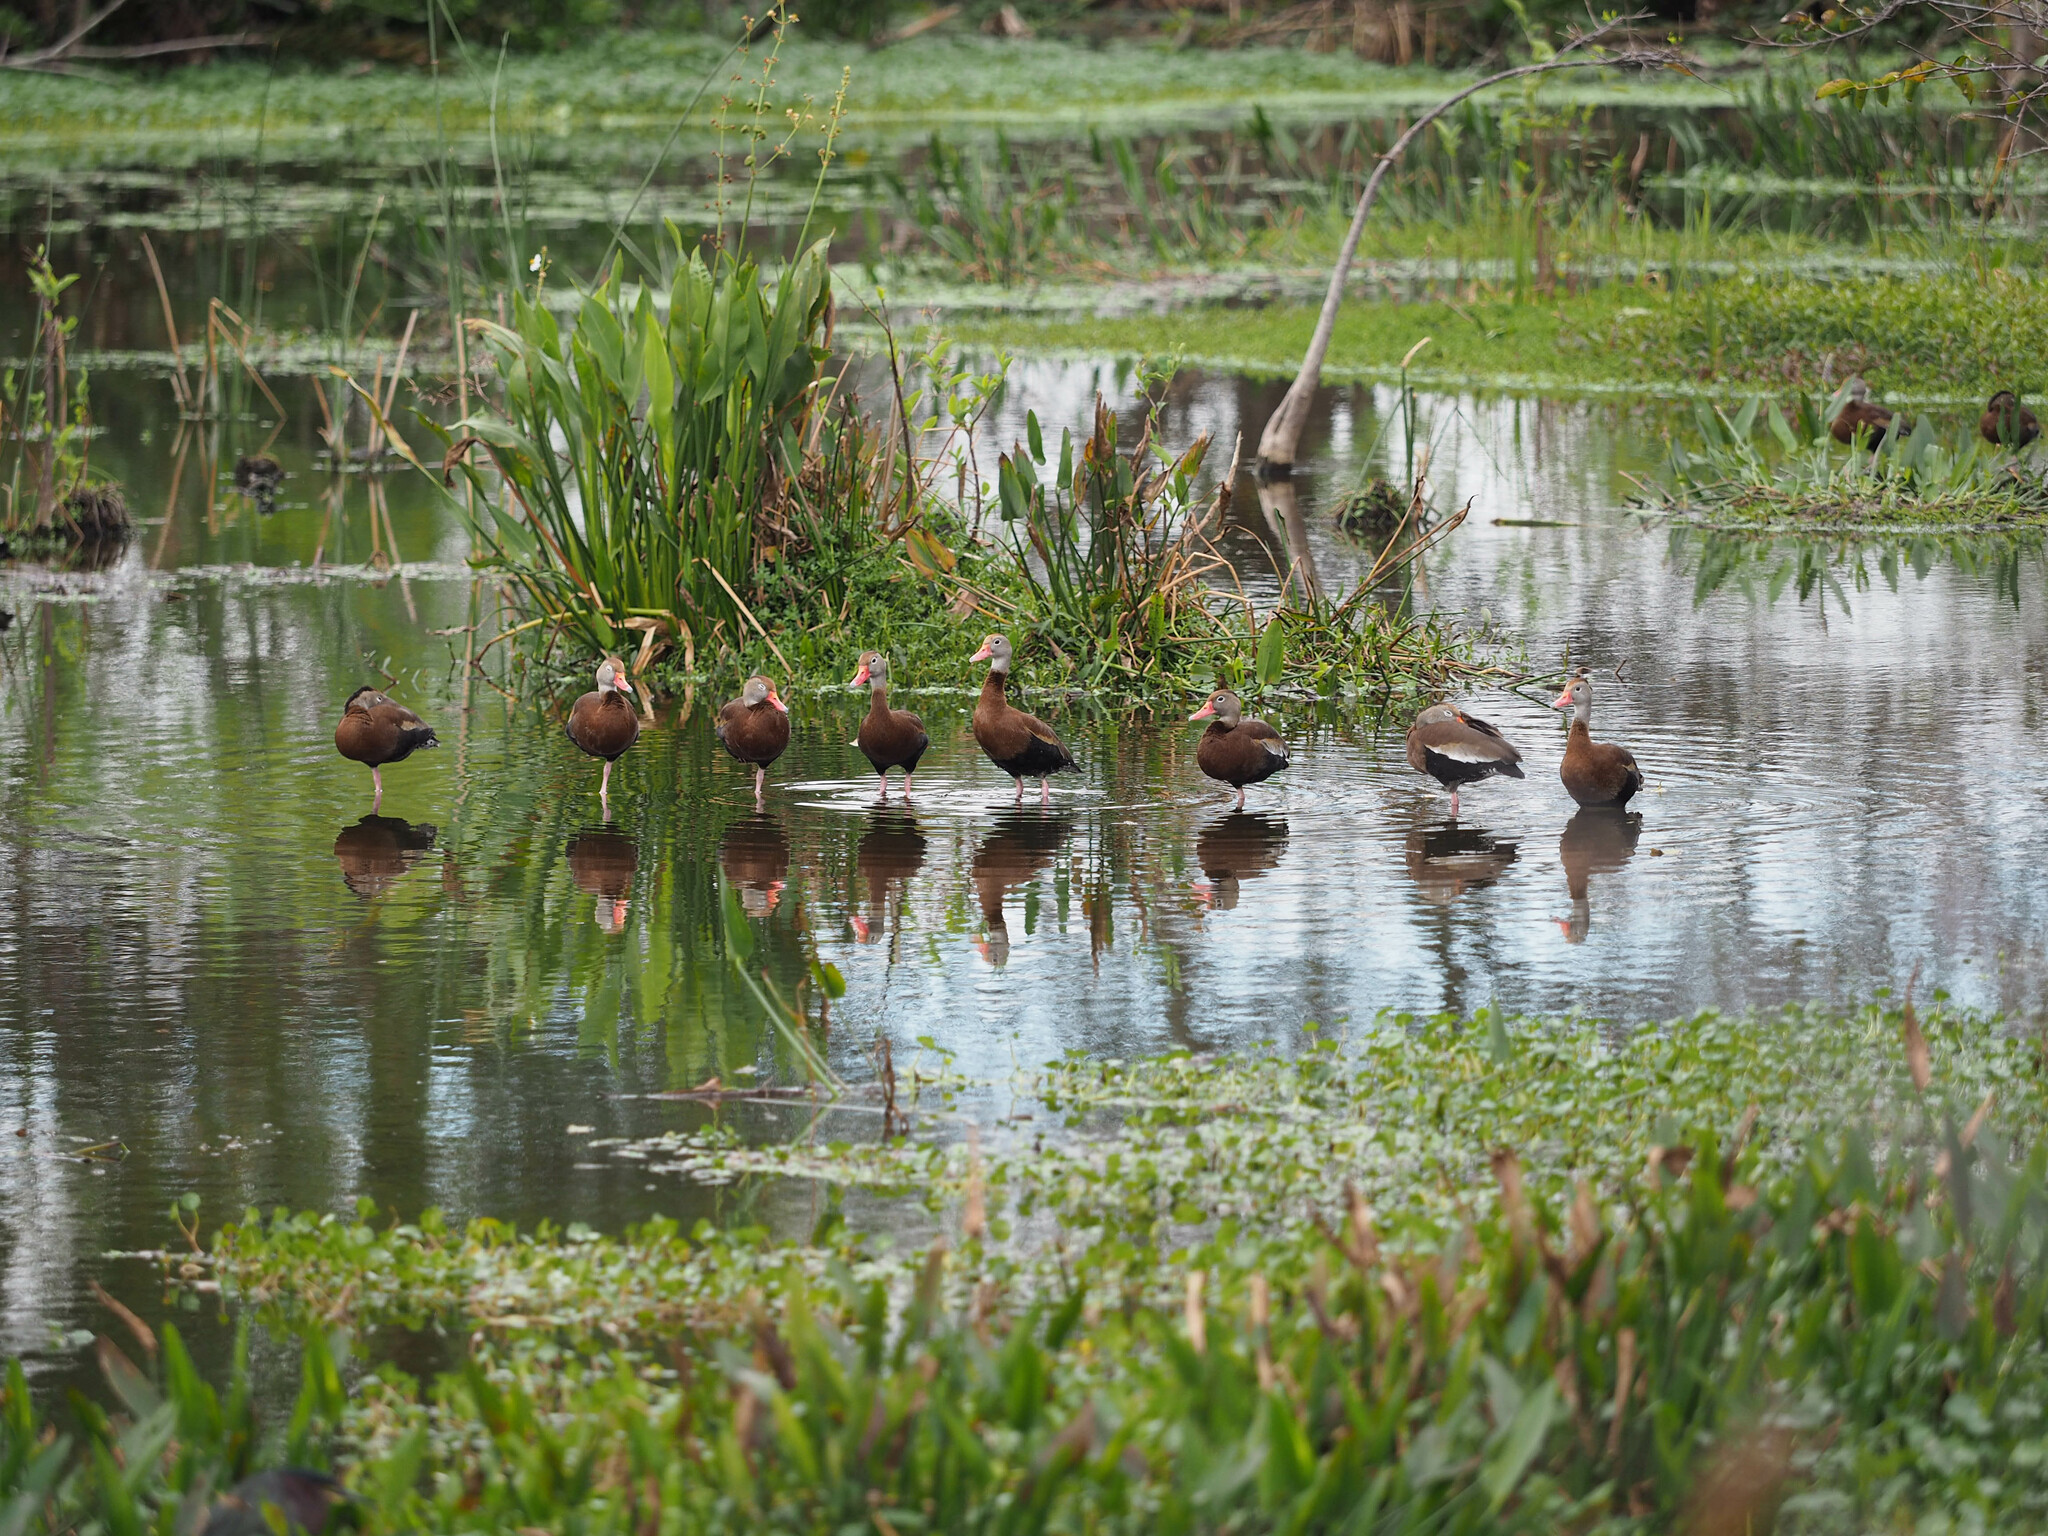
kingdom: Animalia
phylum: Chordata
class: Aves
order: Anseriformes
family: Anatidae
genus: Dendrocygna
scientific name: Dendrocygna autumnalis
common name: Black-bellied whistling duck
